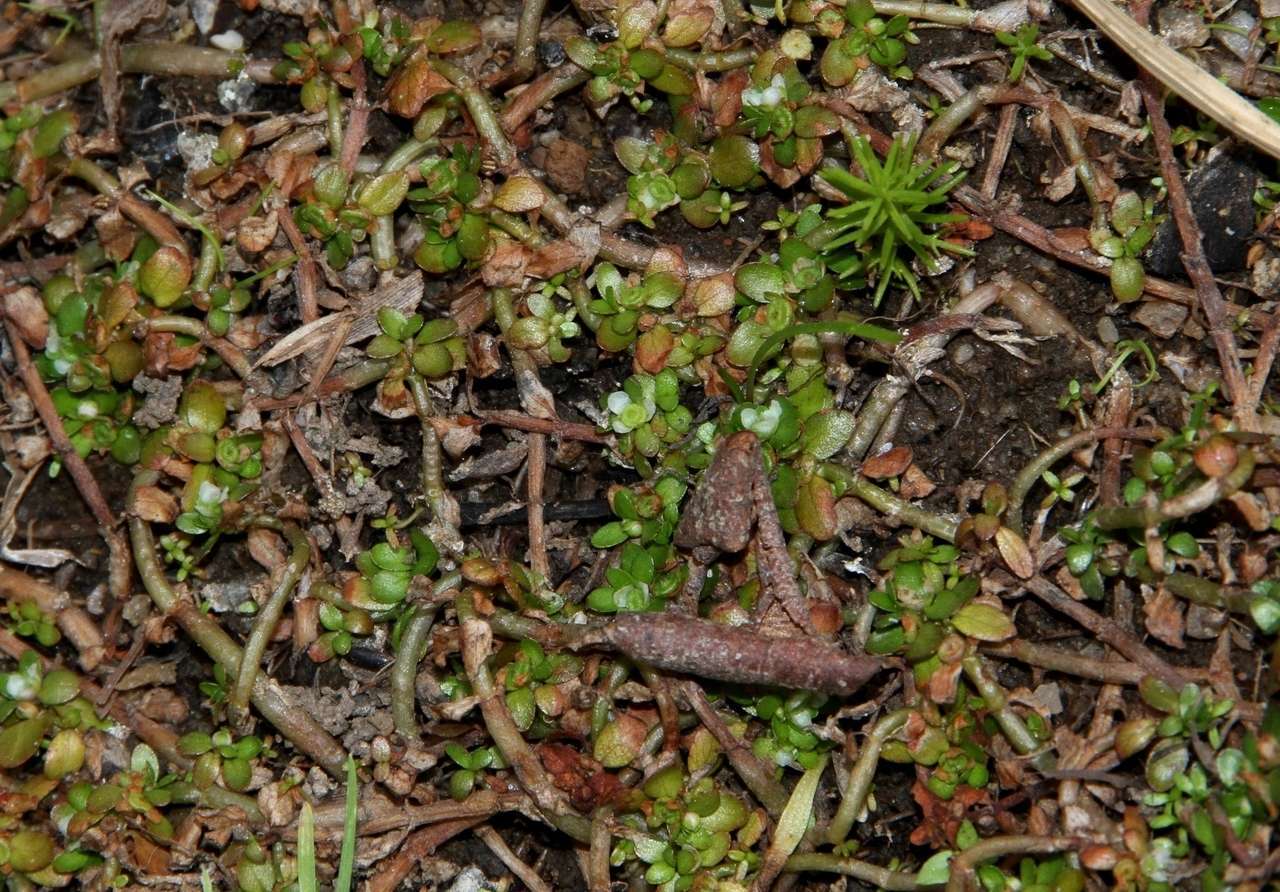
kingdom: Plantae
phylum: Tracheophyta
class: Magnoliopsida
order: Malpighiales
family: Elatinaceae
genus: Elatine
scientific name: Elatine gratioloides
